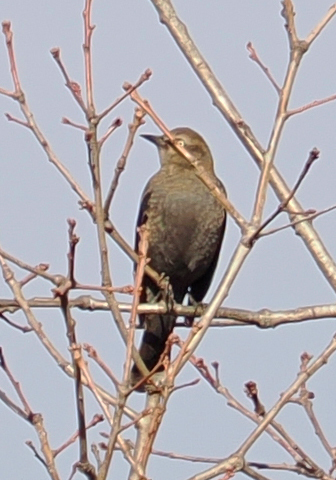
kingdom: Animalia
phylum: Chordata
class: Aves
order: Passeriformes
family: Icteridae
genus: Euphagus
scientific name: Euphagus carolinus
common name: Rusty blackbird
